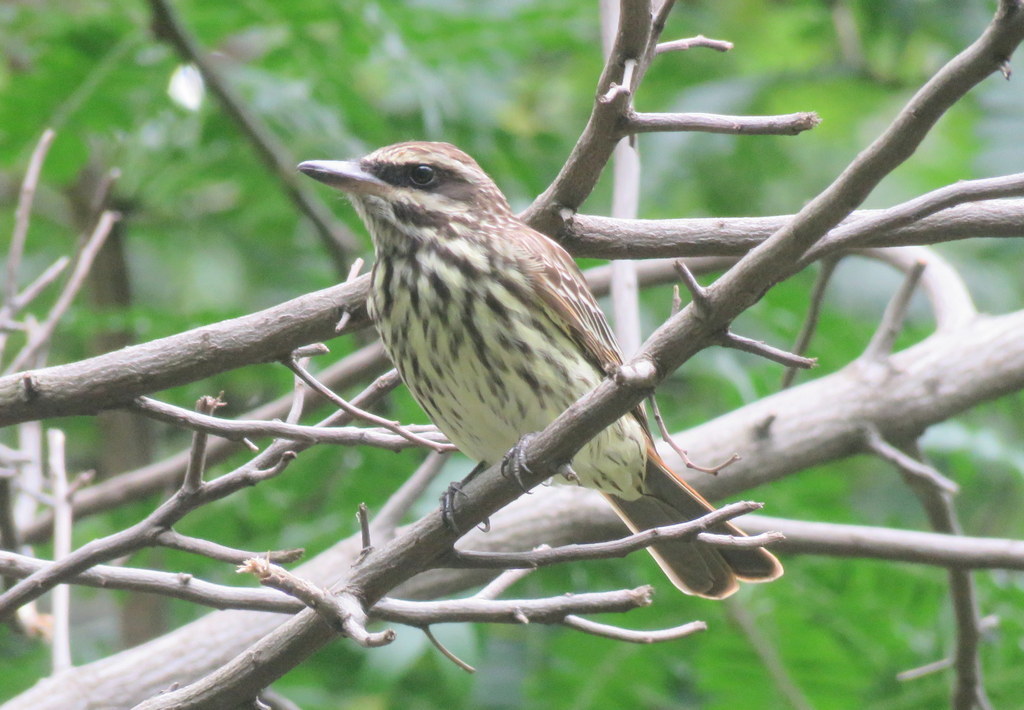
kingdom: Animalia
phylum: Chordata
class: Aves
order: Passeriformes
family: Tyrannidae
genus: Myiodynastes
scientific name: Myiodynastes maculatus
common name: Streaked flycatcher
